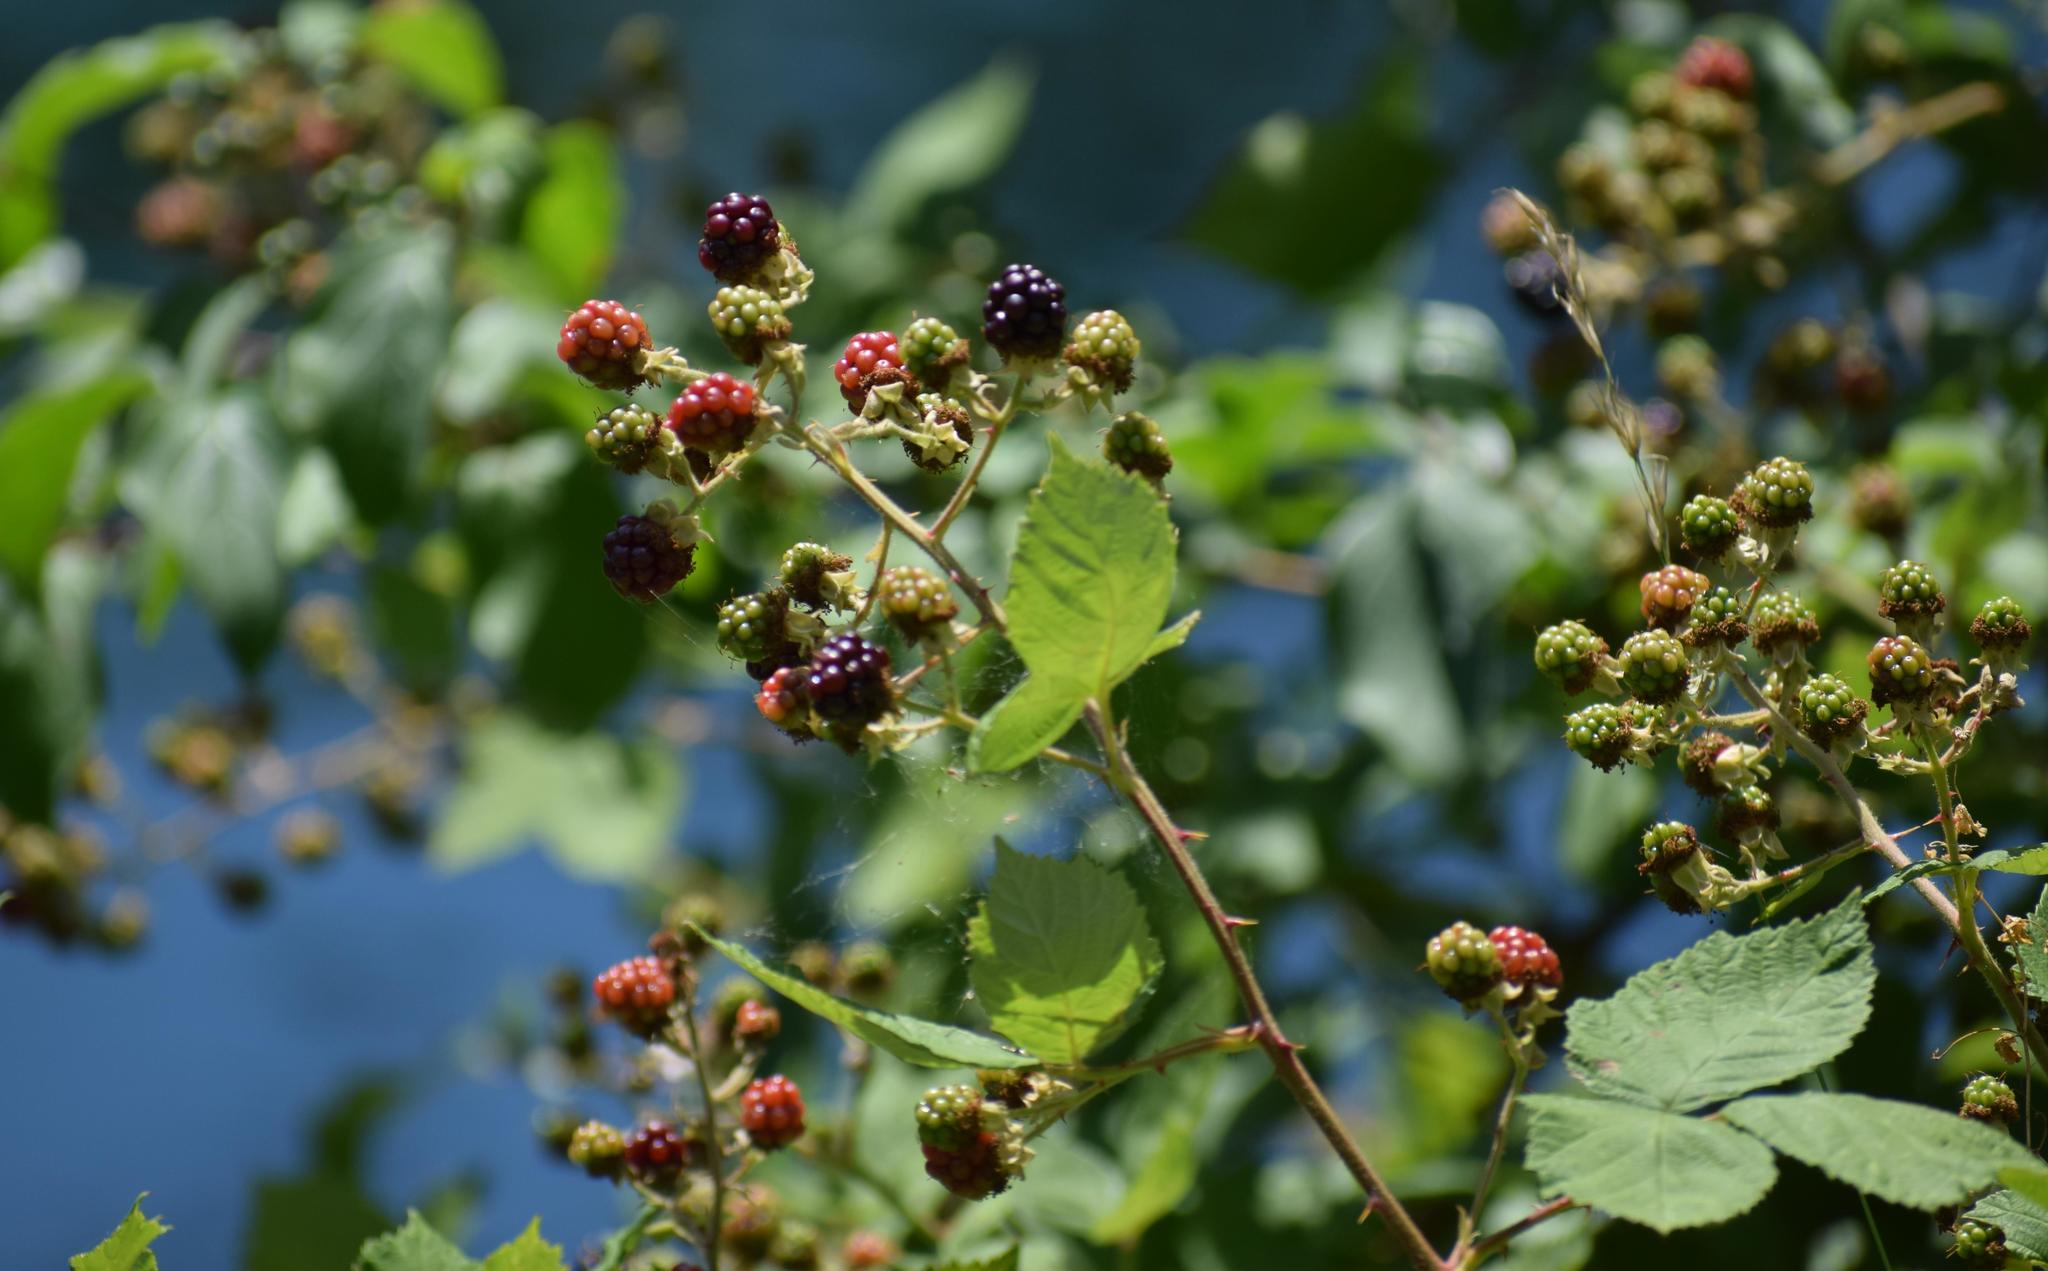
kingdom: Plantae
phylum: Tracheophyta
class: Magnoliopsida
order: Rosales
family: Rosaceae
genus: Rubus
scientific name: Rubus
